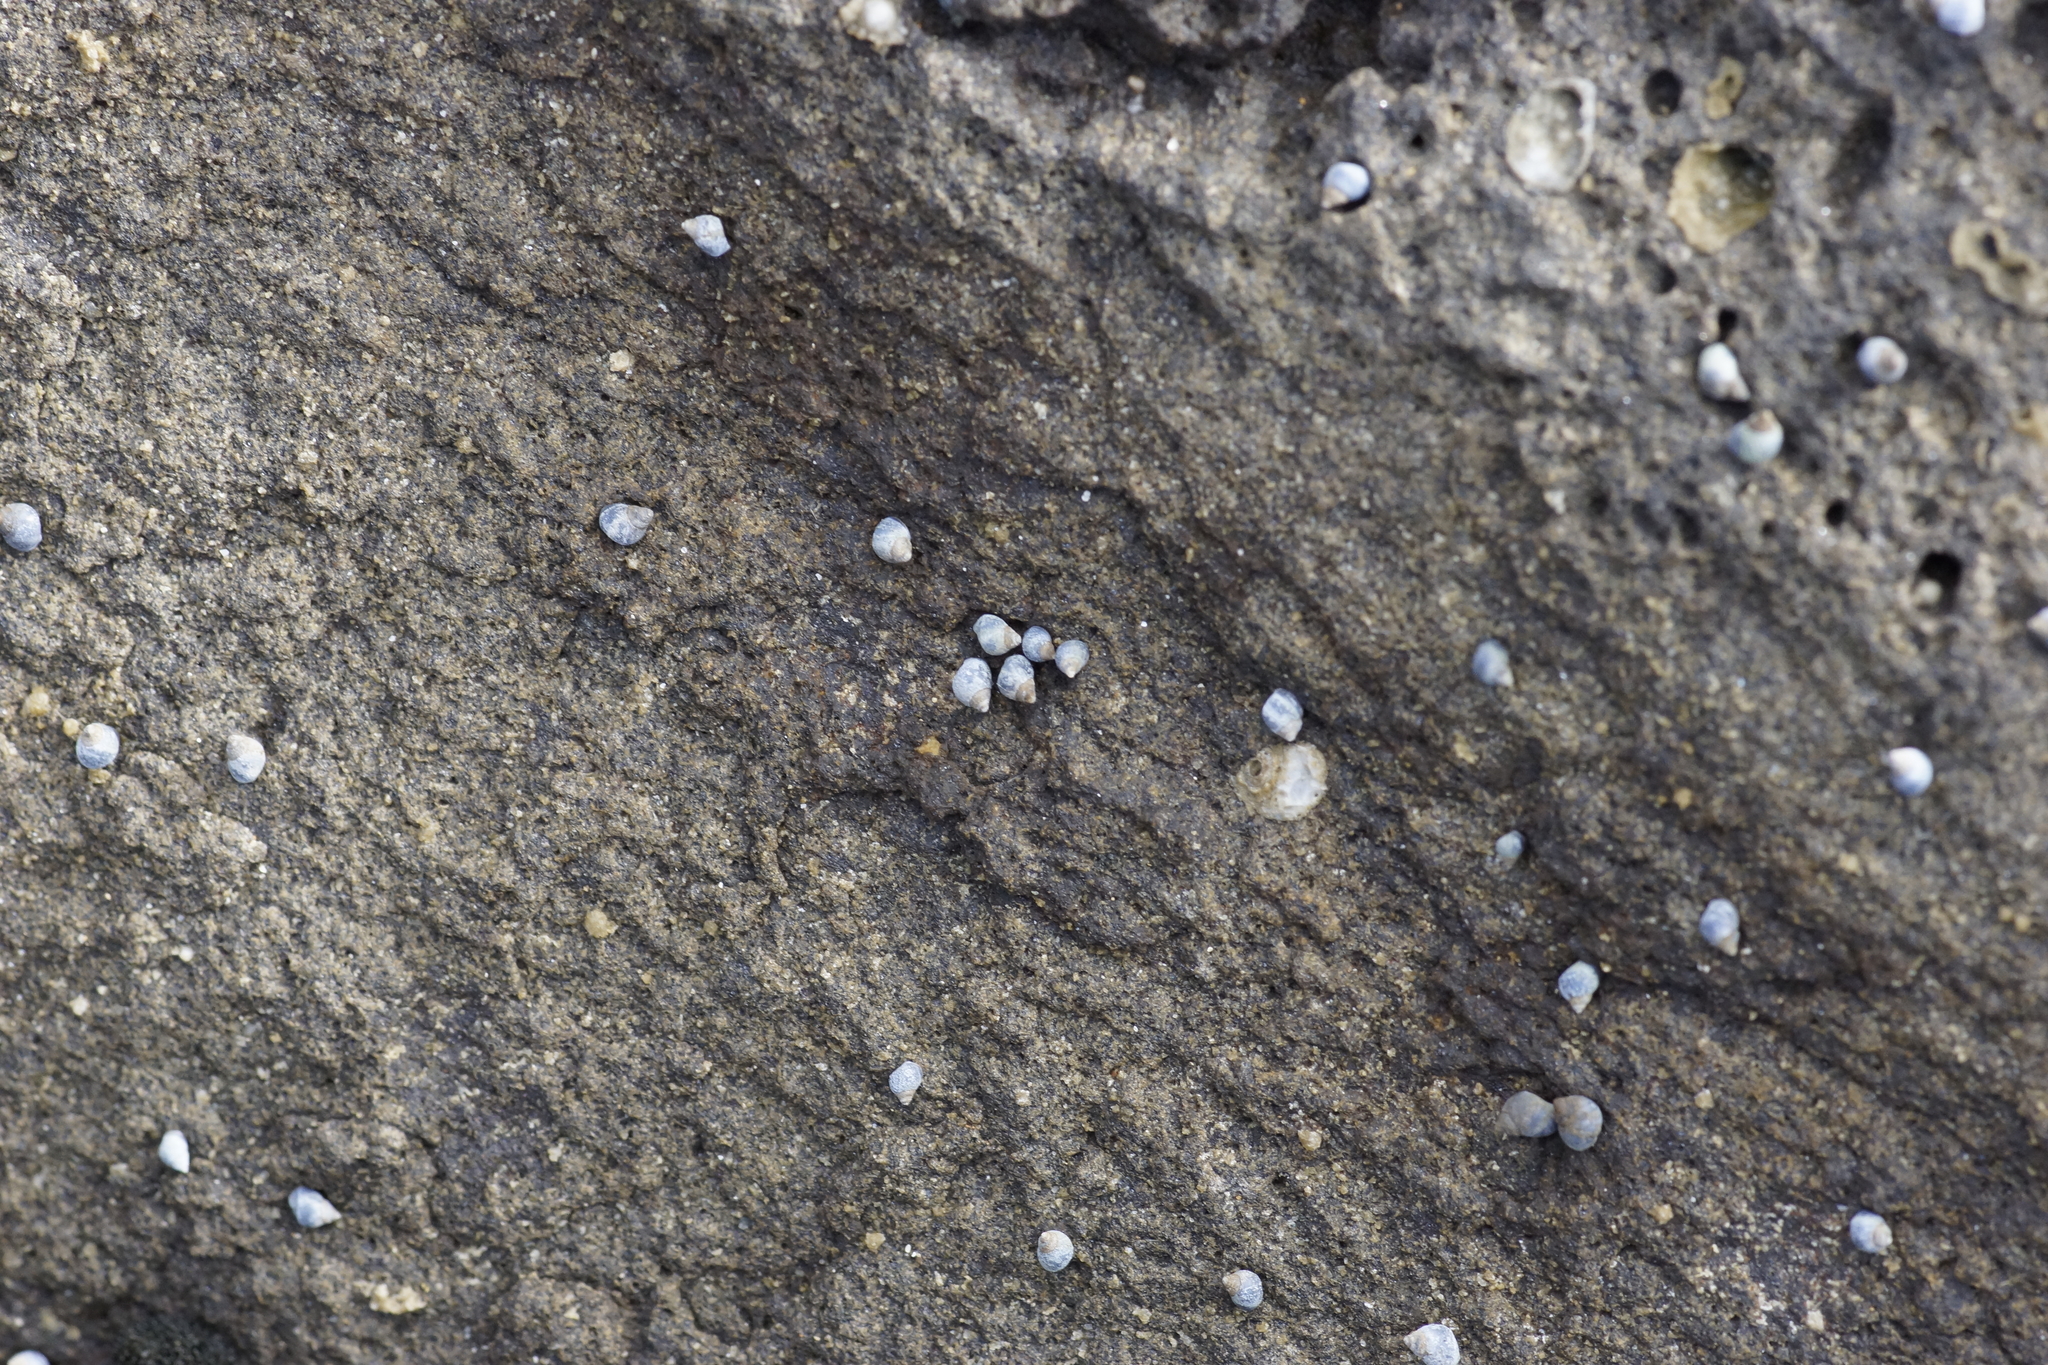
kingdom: Animalia
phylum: Mollusca
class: Gastropoda
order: Littorinimorpha
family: Littorinidae
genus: Austrolittorina
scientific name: Austrolittorina unifasciata
